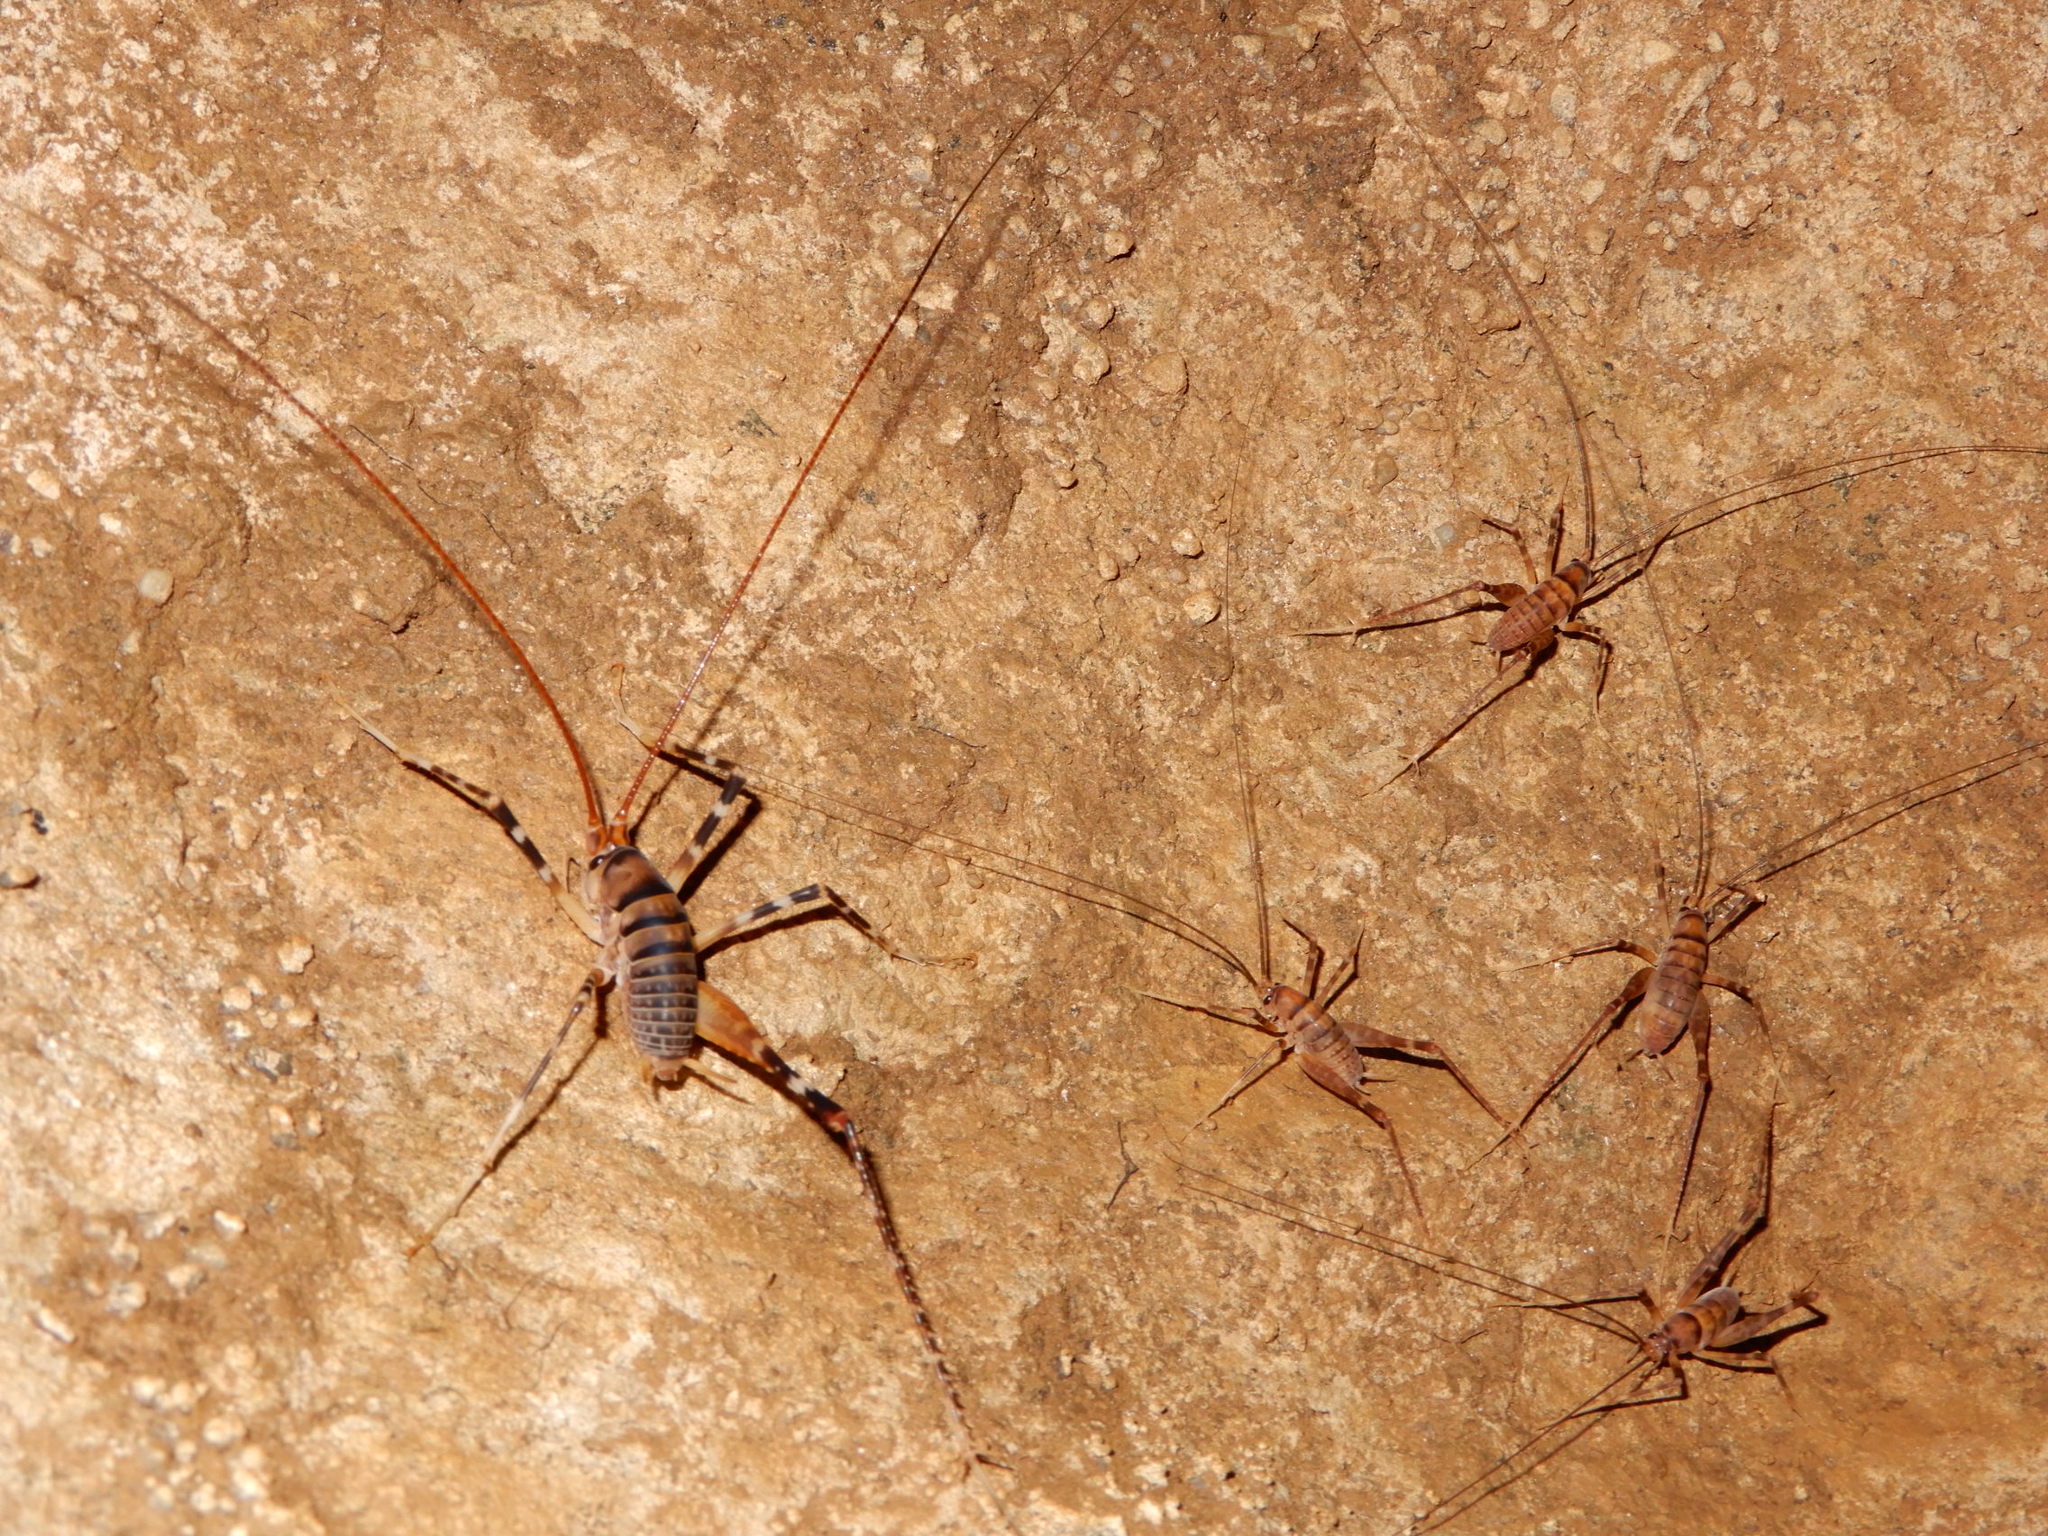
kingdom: Animalia
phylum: Arthropoda
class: Insecta
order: Orthoptera
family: Rhaphidophoridae
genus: Pachyrhamma
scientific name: Pachyrhamma edwardsii
